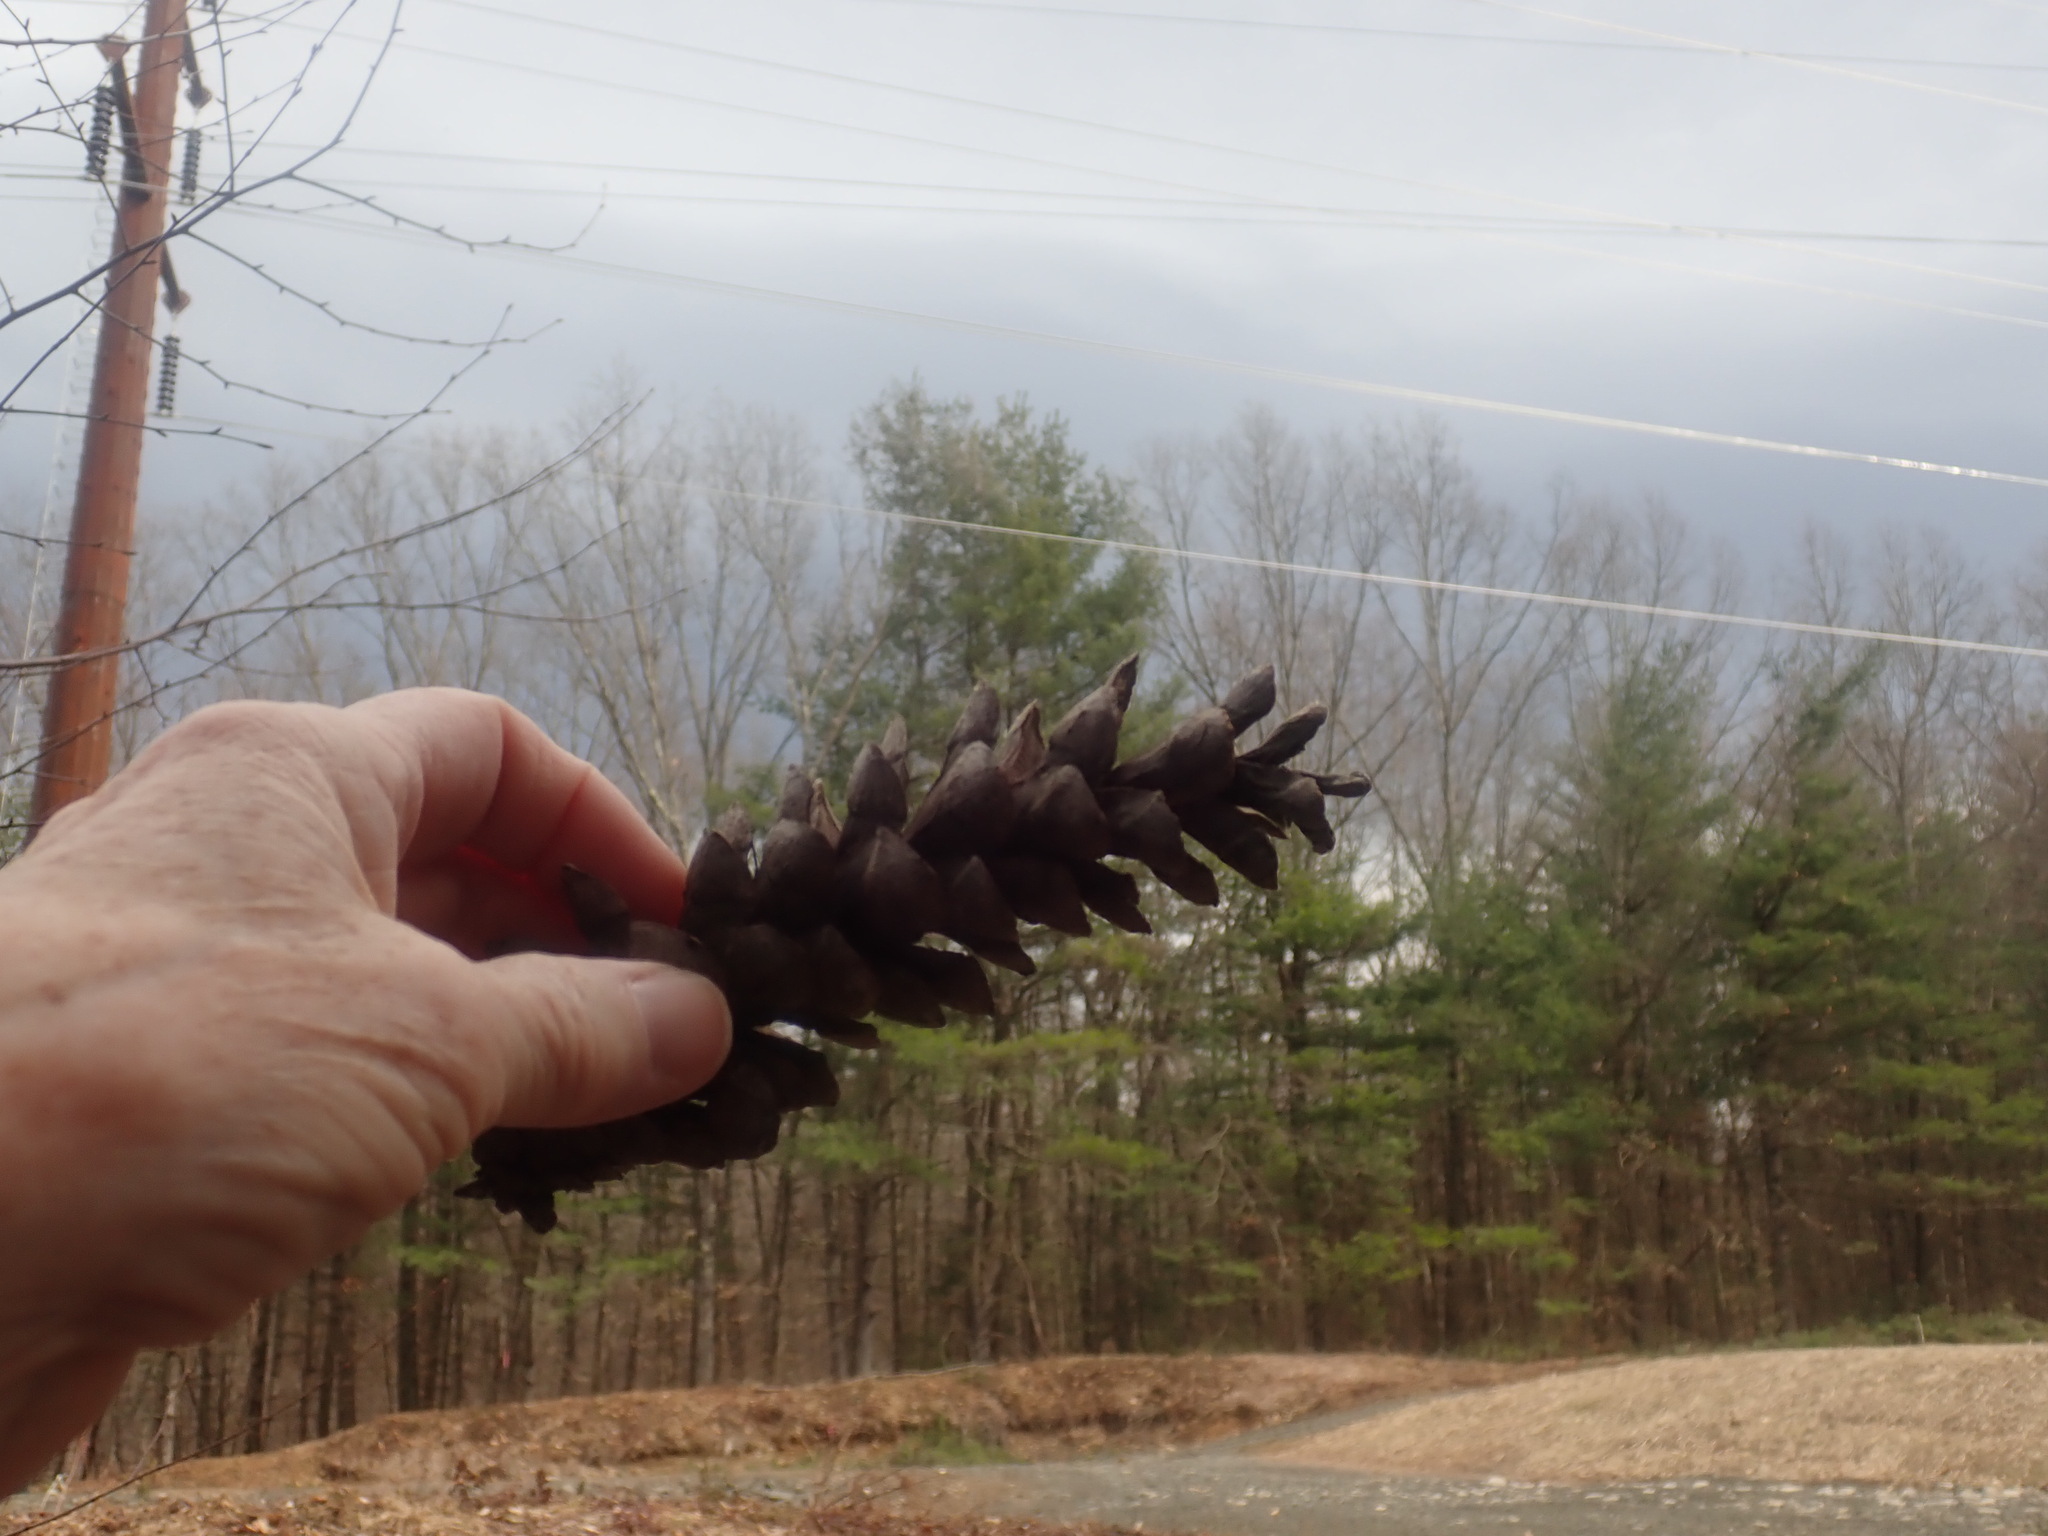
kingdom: Plantae
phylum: Tracheophyta
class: Pinopsida
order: Pinales
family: Pinaceae
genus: Pinus
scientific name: Pinus strobus
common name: Weymouth pine
